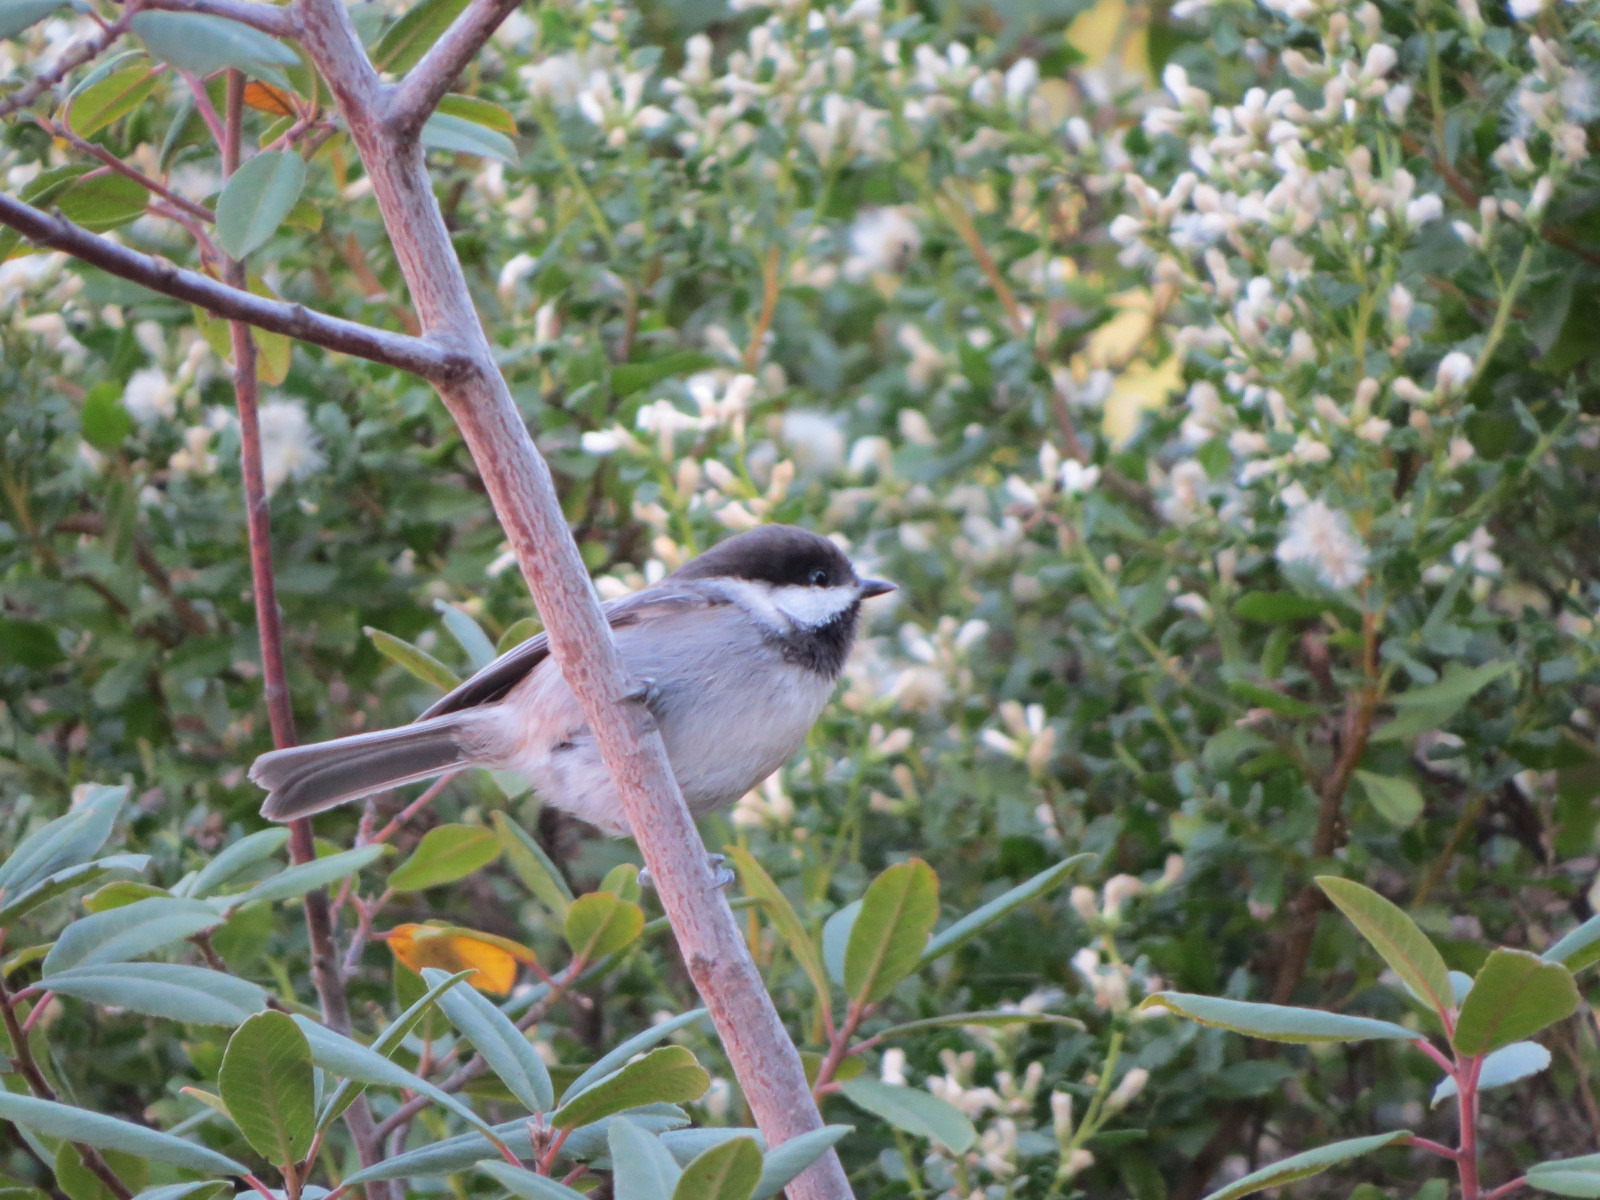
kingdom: Animalia
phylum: Chordata
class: Aves
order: Passeriformes
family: Paridae
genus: Poecile
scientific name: Poecile rufescens
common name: Chestnut-backed chickadee
